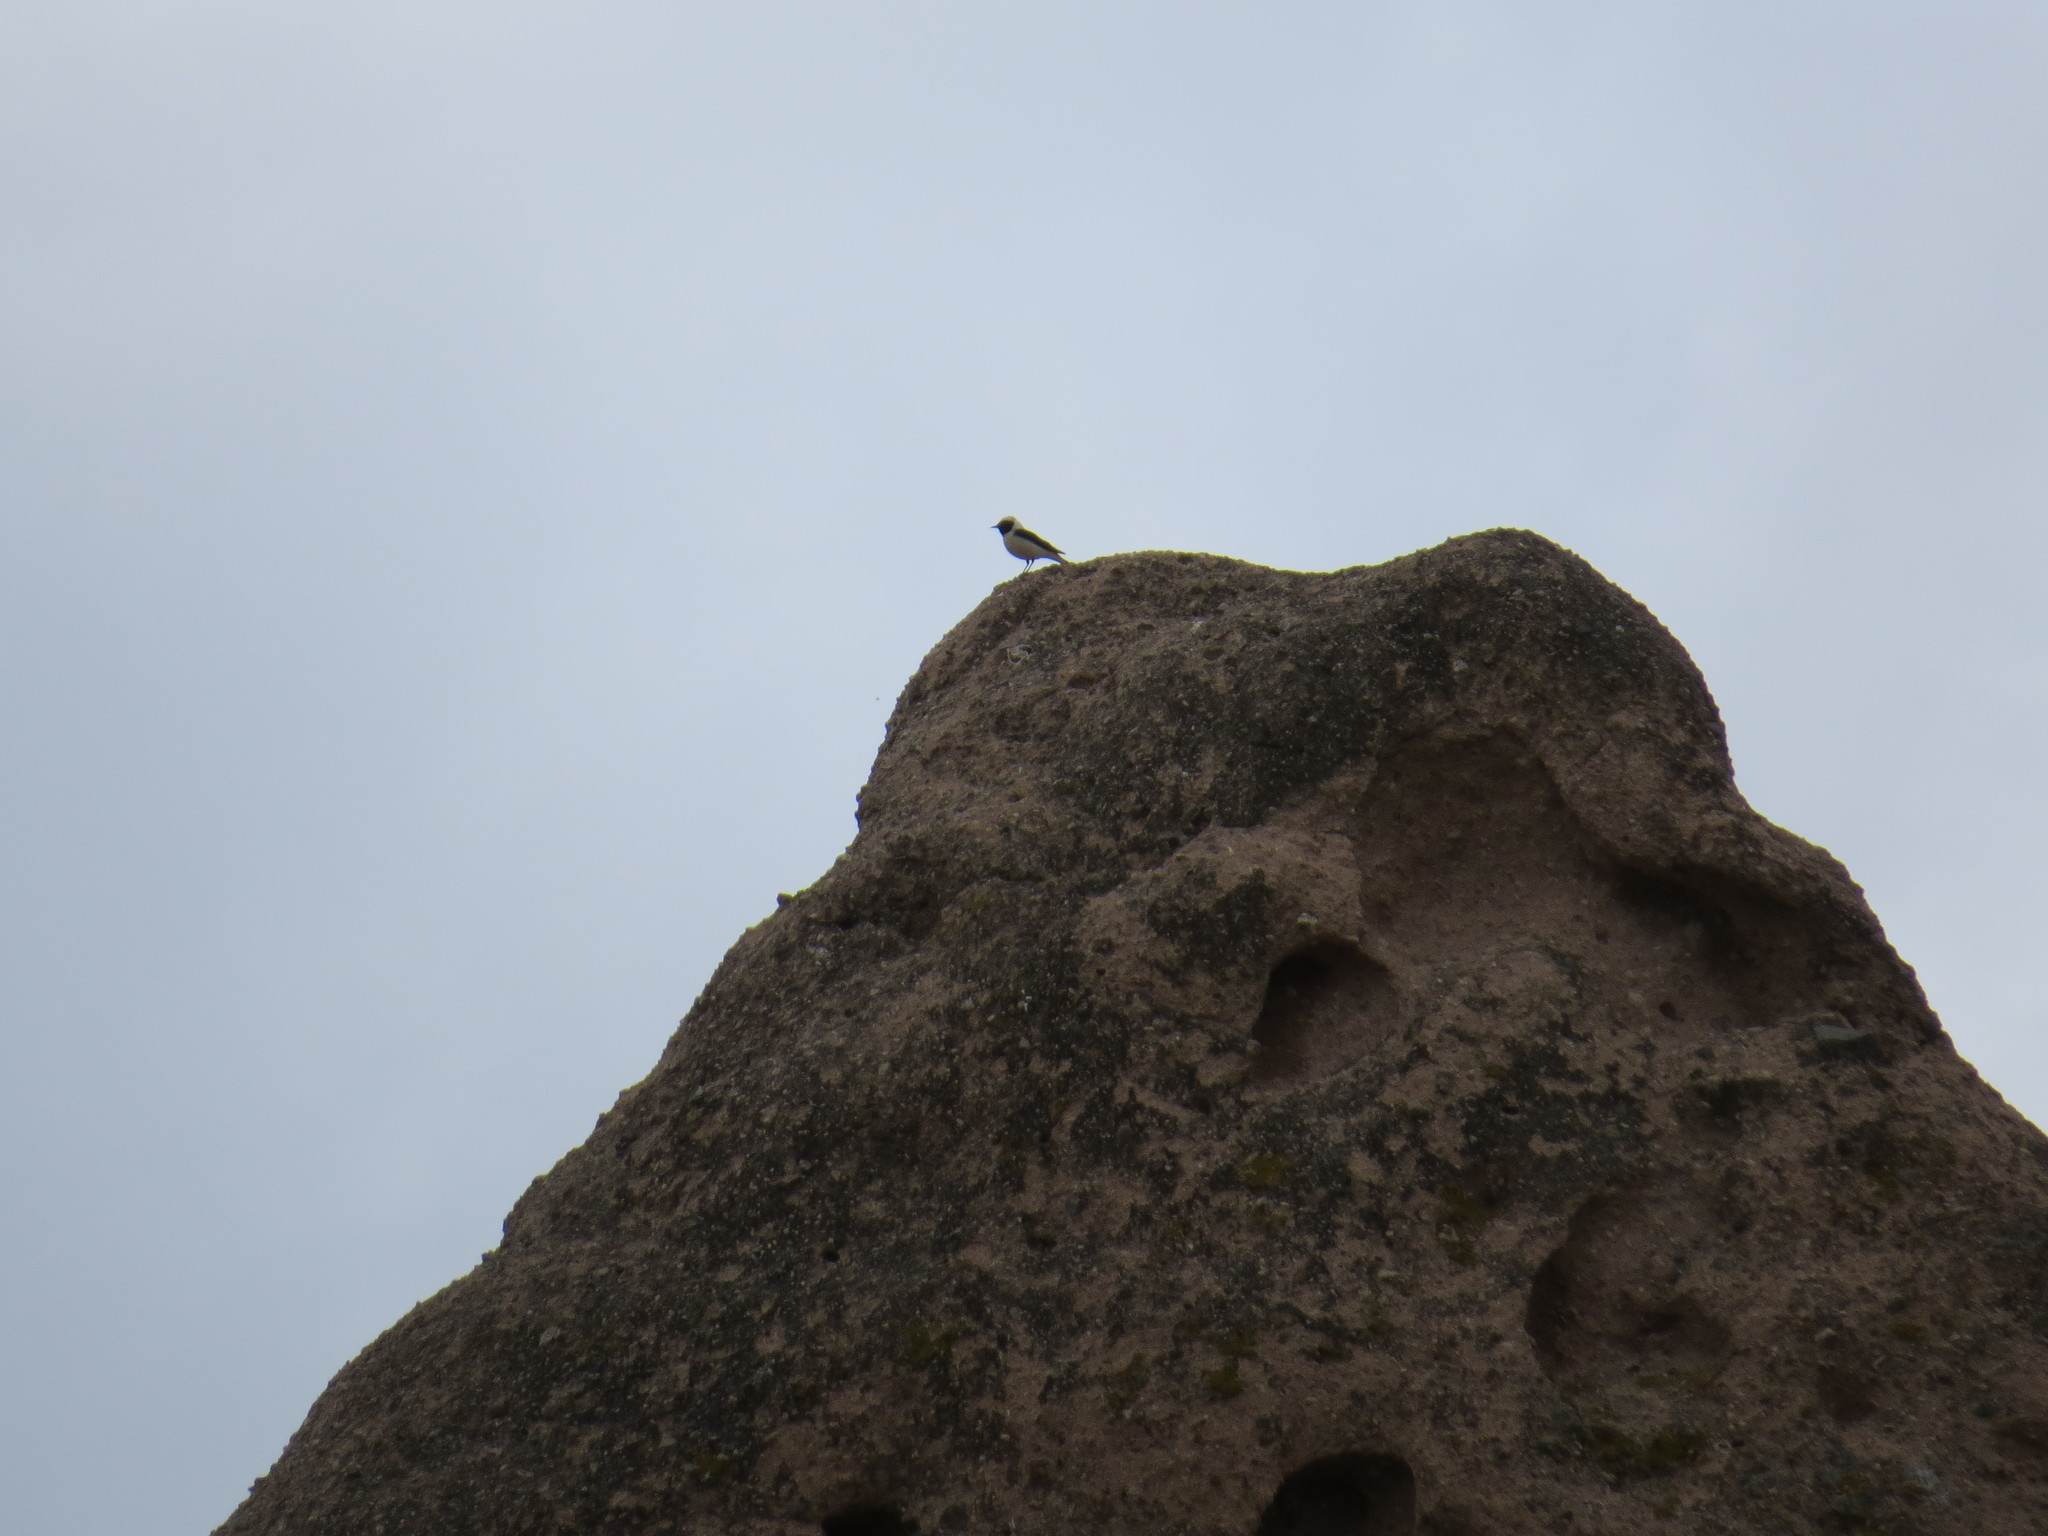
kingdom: Animalia
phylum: Chordata
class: Aves
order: Passeriformes
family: Muscicapidae
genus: Oenanthe
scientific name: Oenanthe hispanica
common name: Black-eared wheatear
